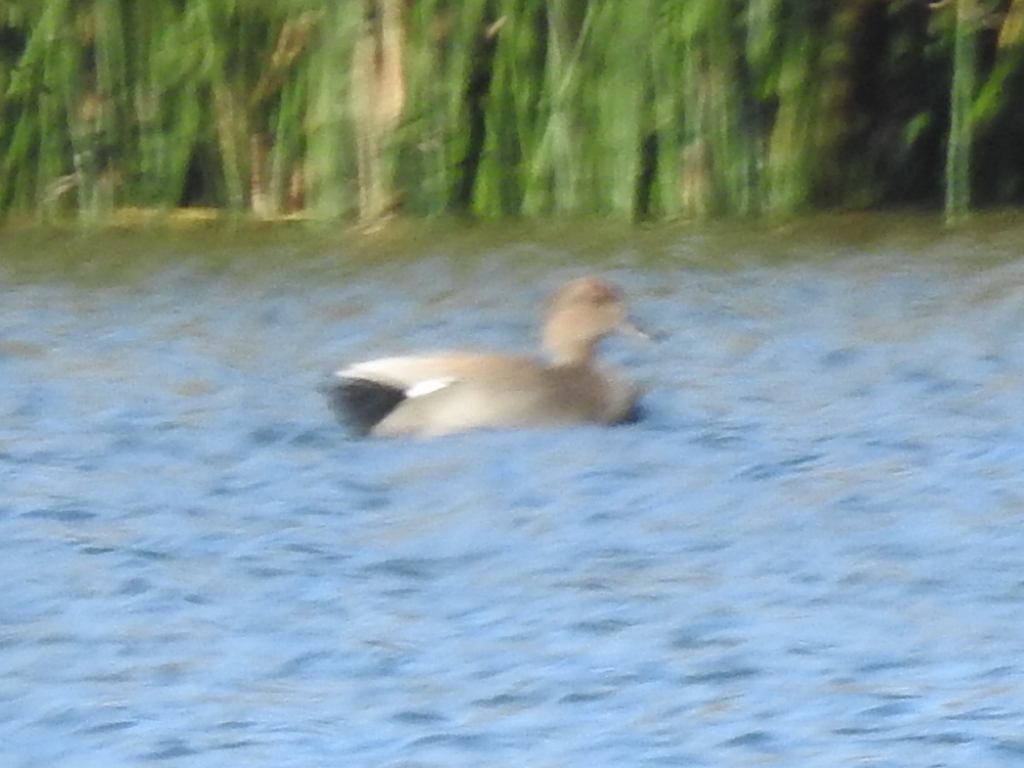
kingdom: Animalia
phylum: Chordata
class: Aves
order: Anseriformes
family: Anatidae
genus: Mareca
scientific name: Mareca strepera
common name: Gadwall
